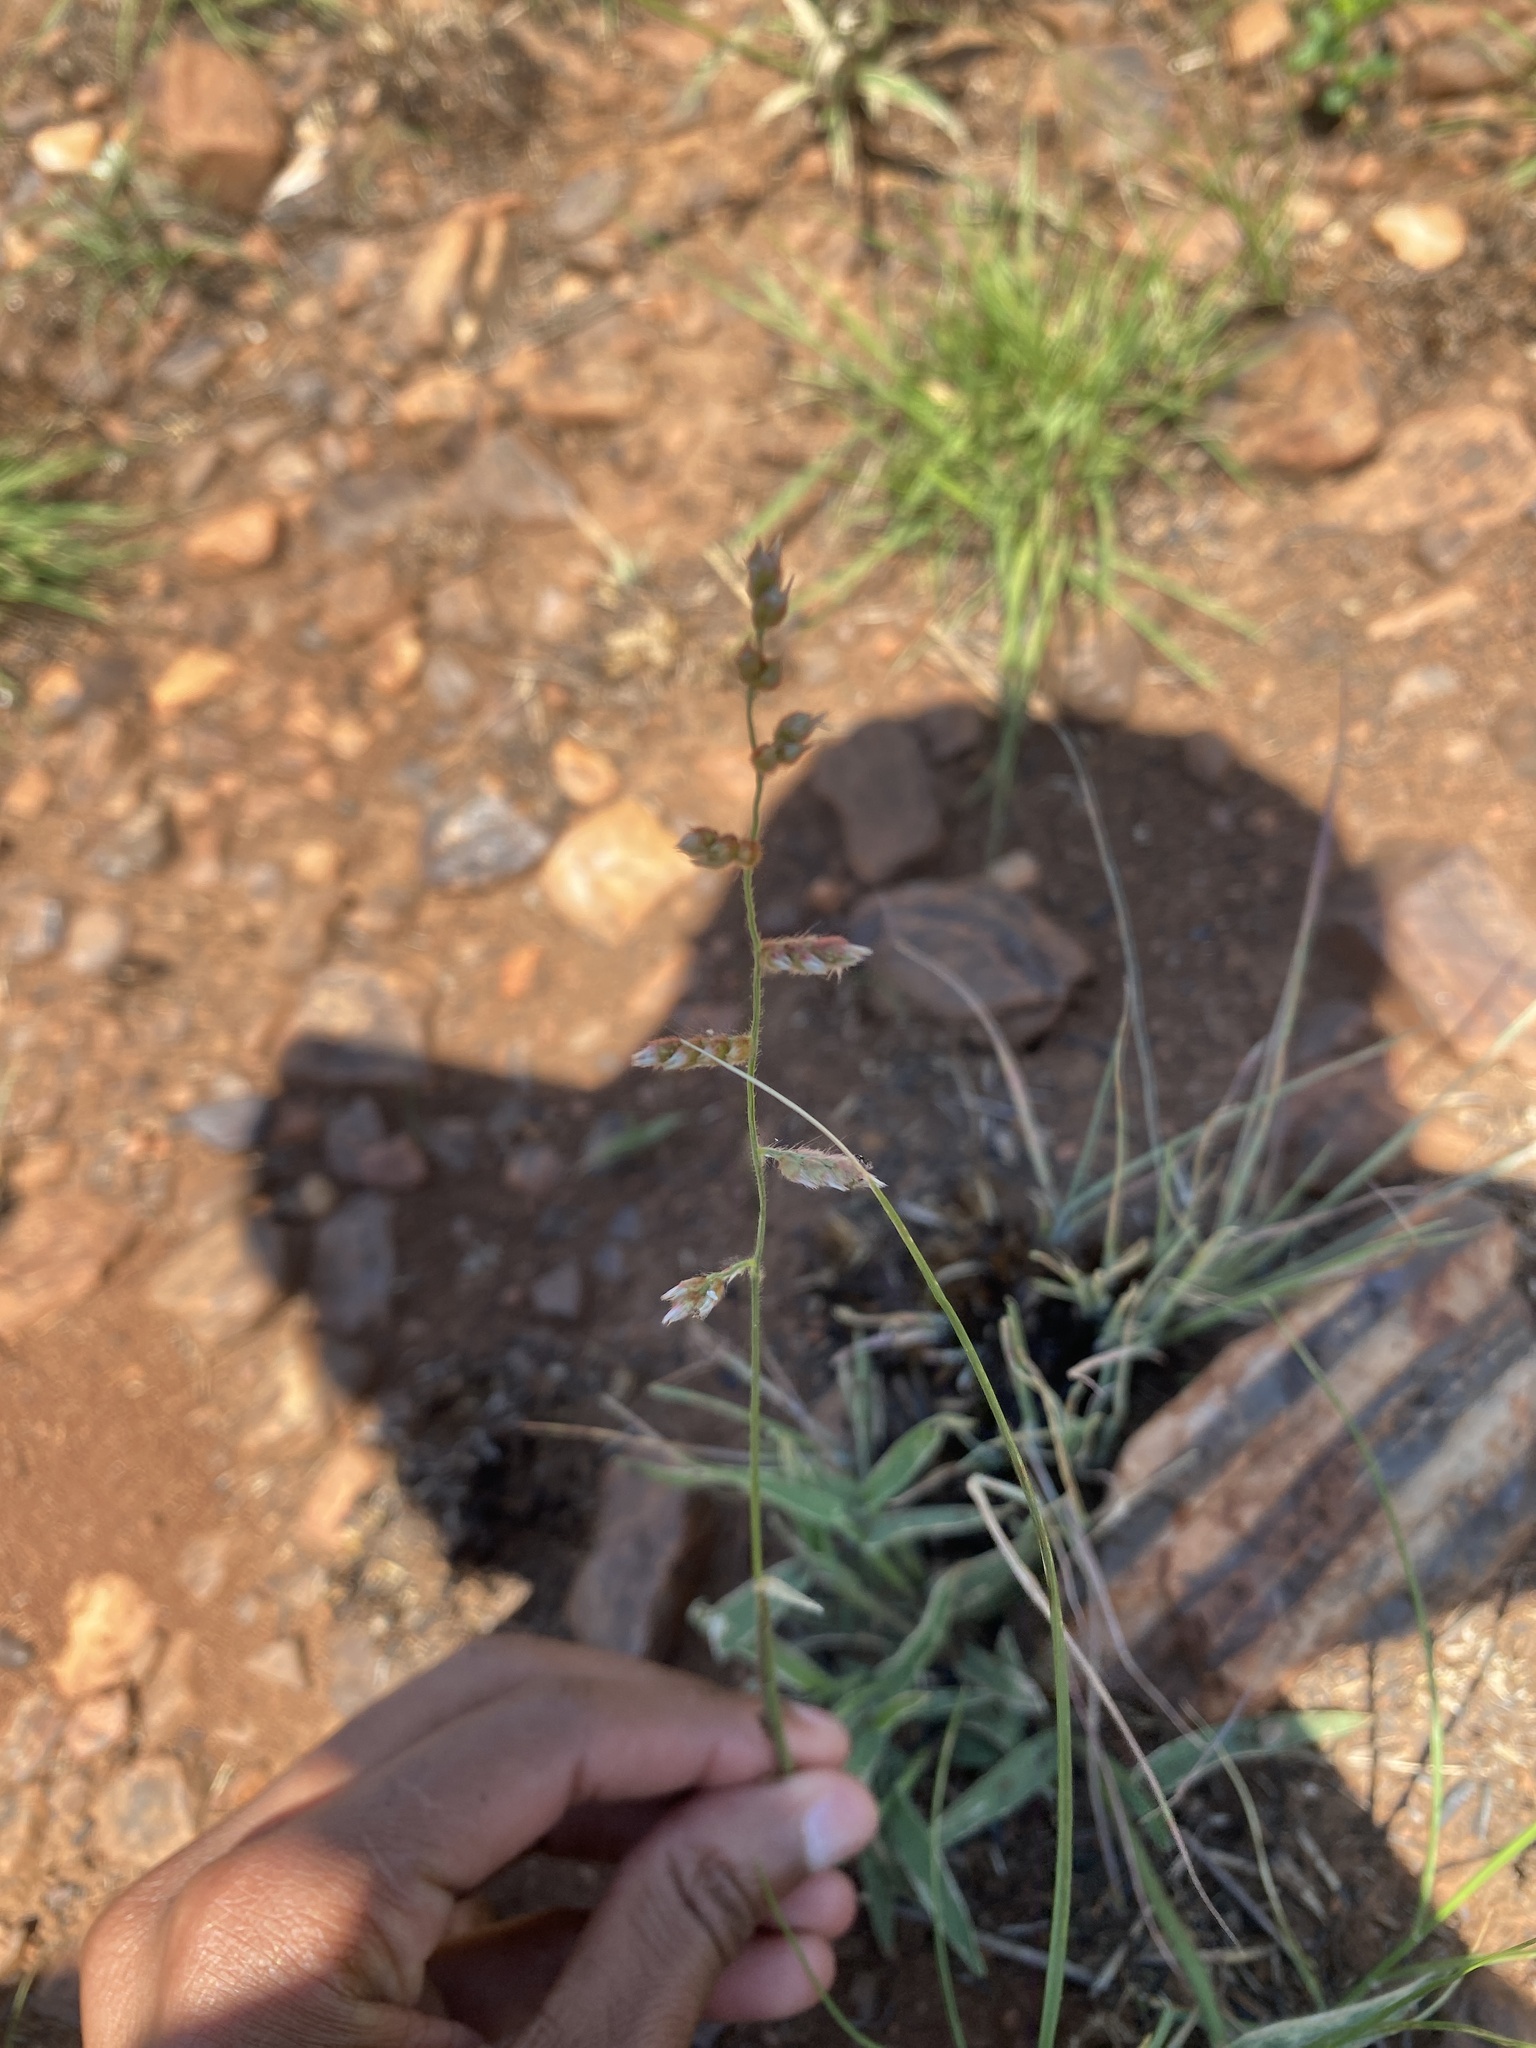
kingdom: Plantae
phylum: Tracheophyta
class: Liliopsida
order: Poales
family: Poaceae
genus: Urochloa
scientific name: Urochloa serrata
